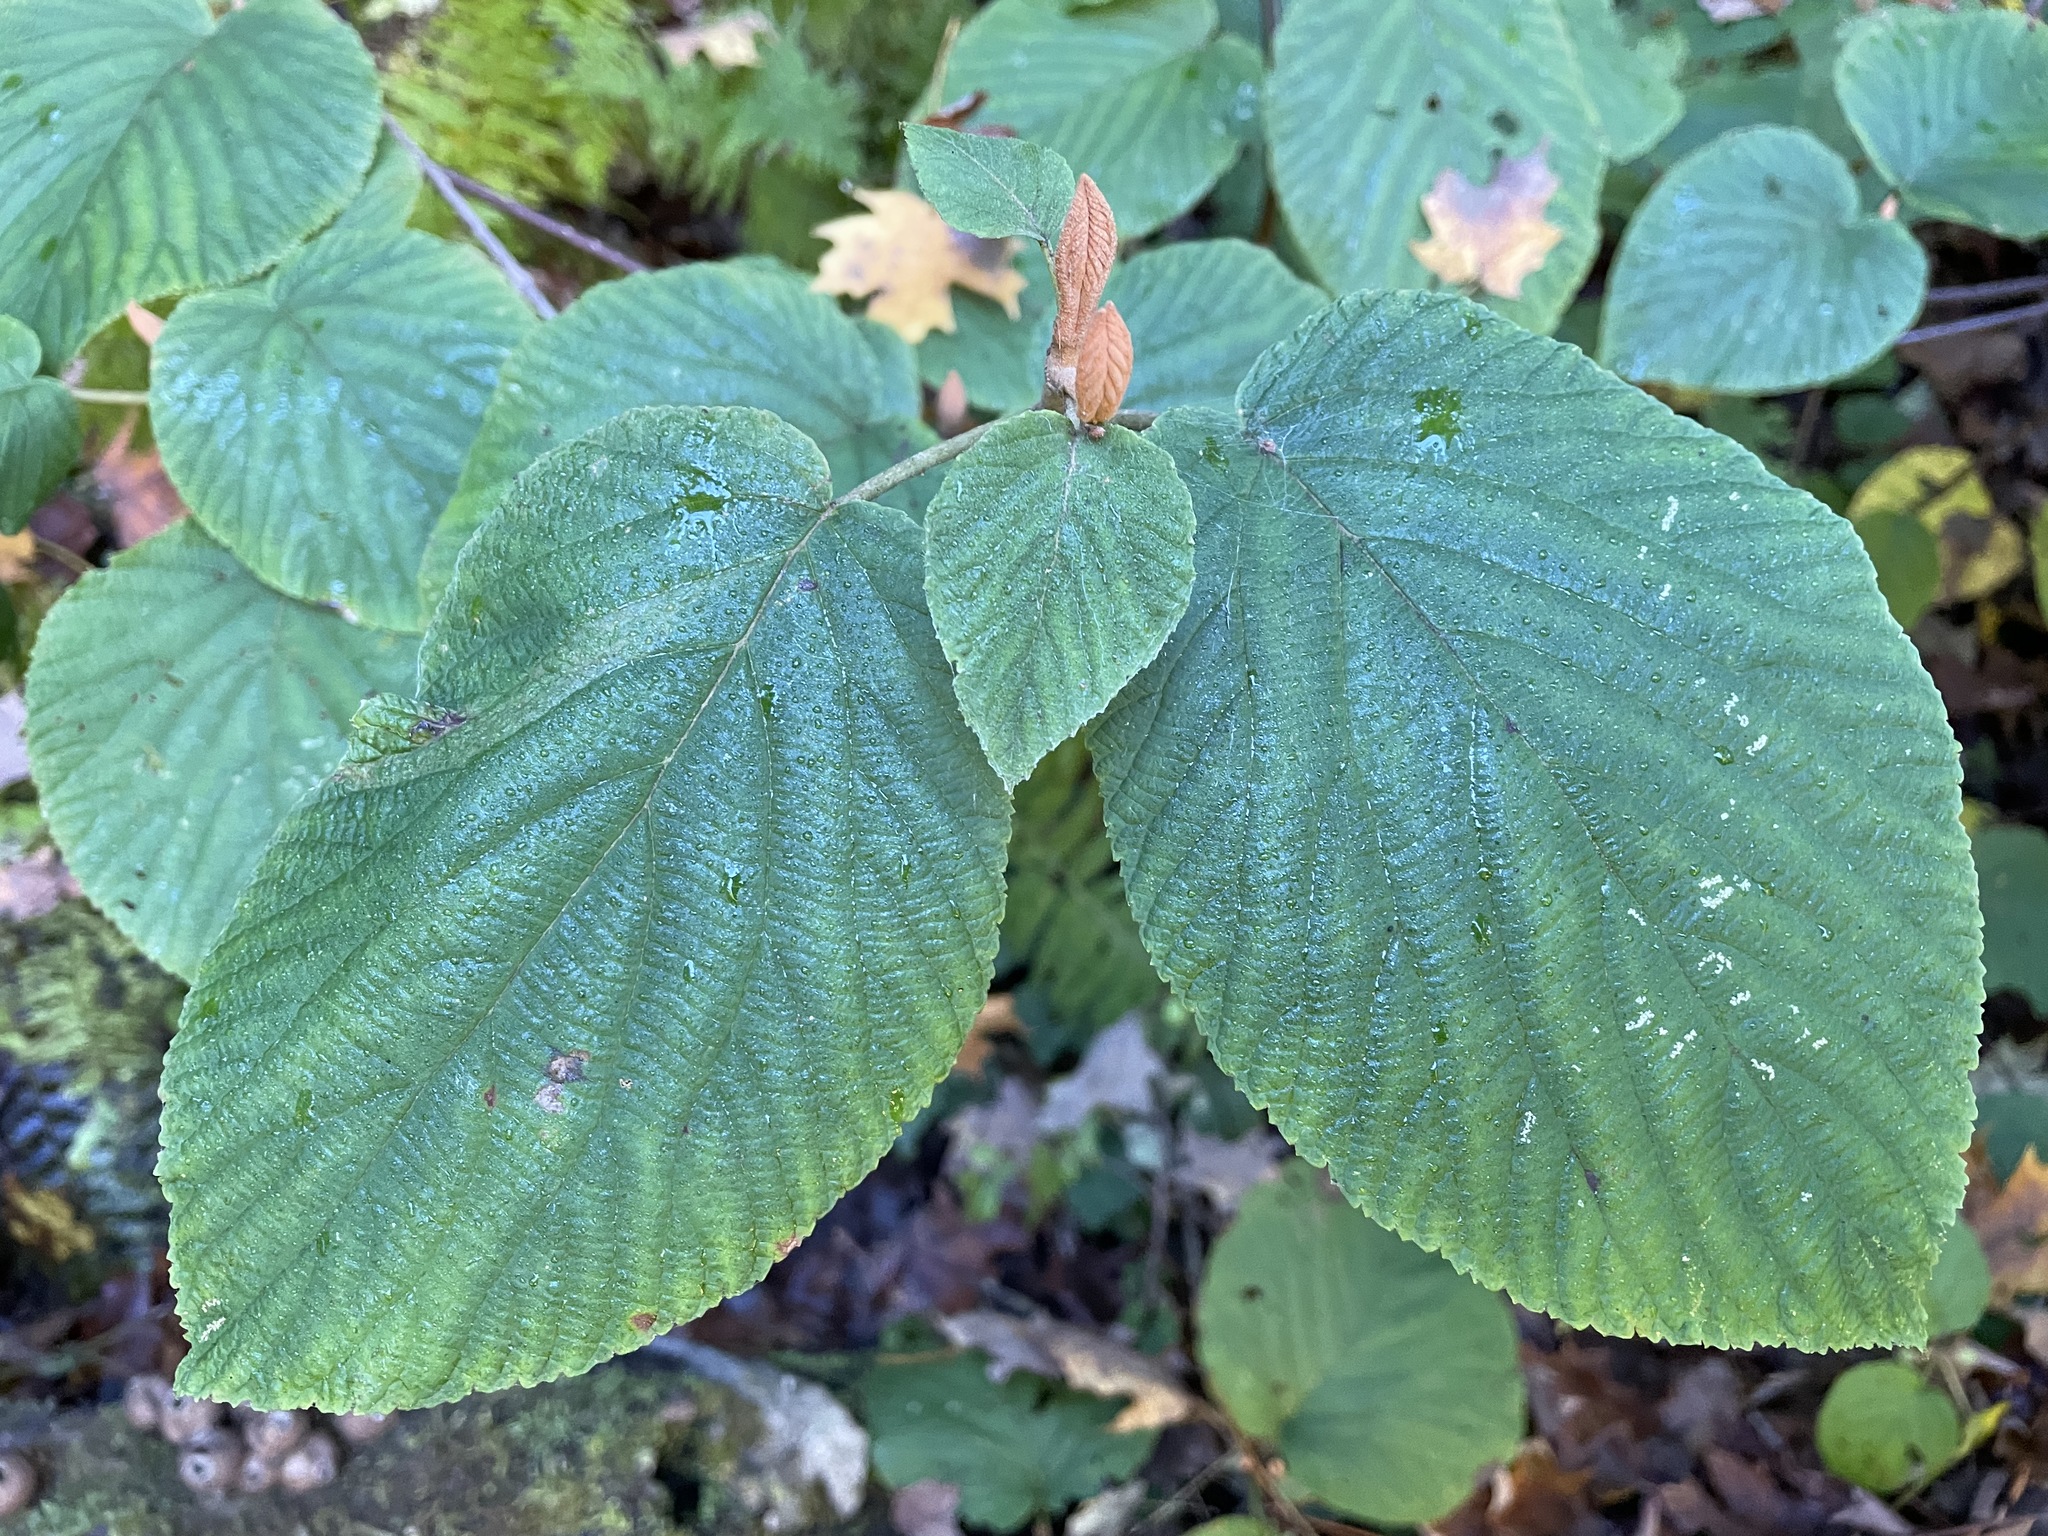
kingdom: Plantae
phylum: Tracheophyta
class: Magnoliopsida
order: Dipsacales
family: Viburnaceae
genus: Viburnum
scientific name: Viburnum lantanoides
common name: Hobblebush
